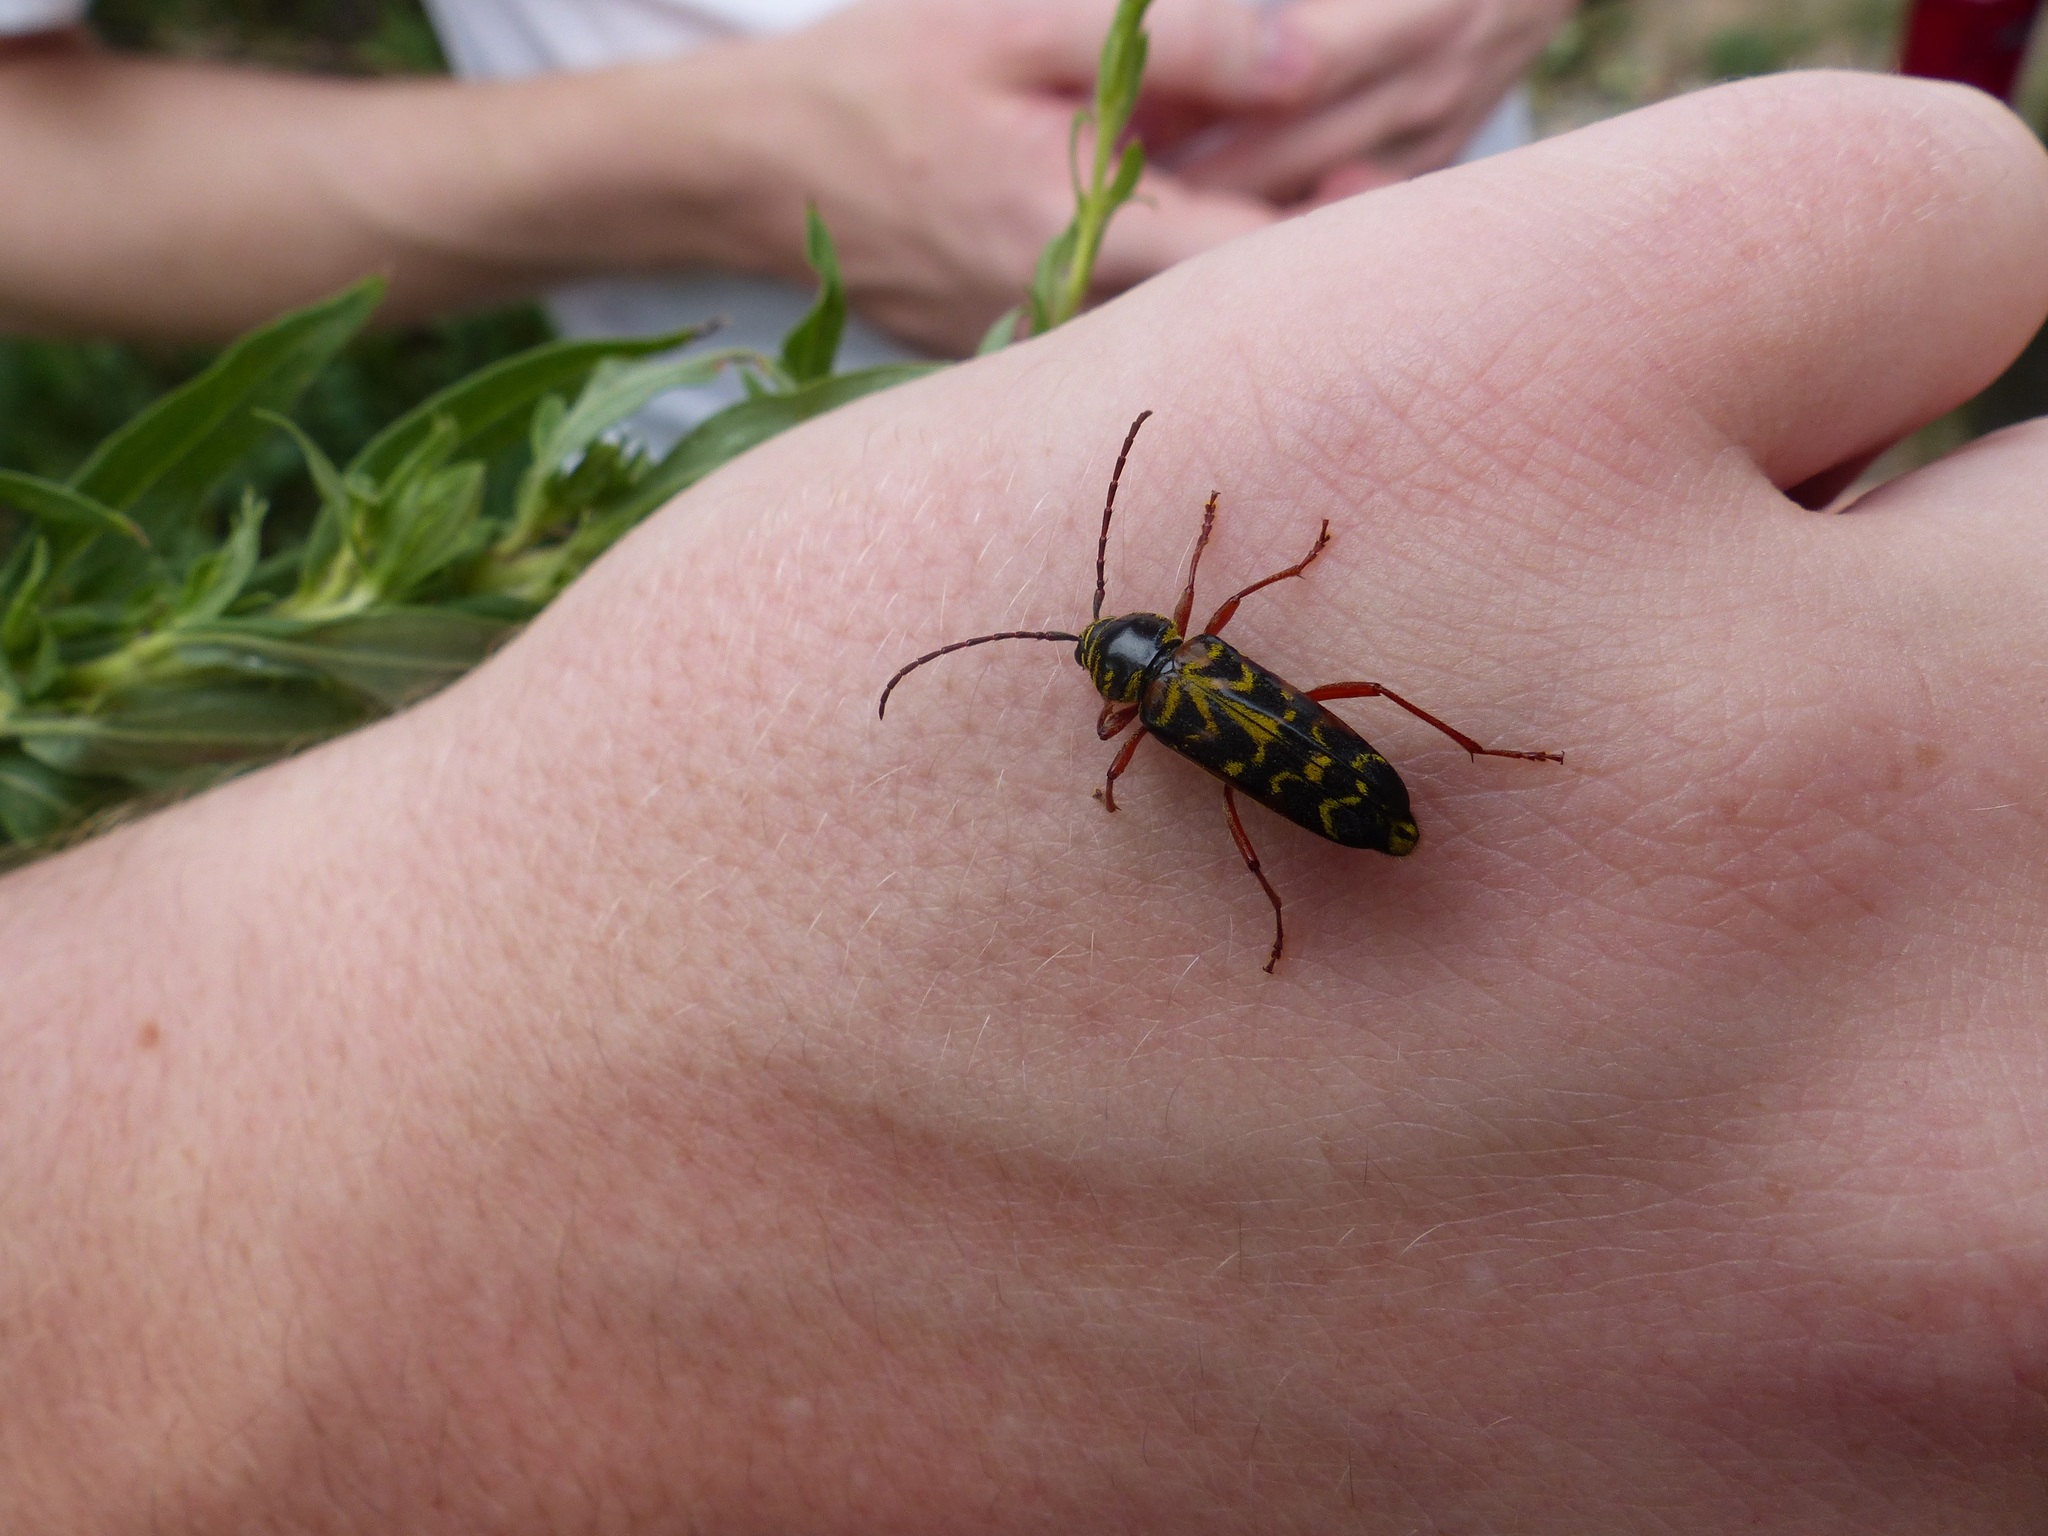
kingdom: Animalia
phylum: Arthropoda
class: Insecta
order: Coleoptera
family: Cerambycidae
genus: Megacyllene
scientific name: Megacyllene robiniae
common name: Locust borer
